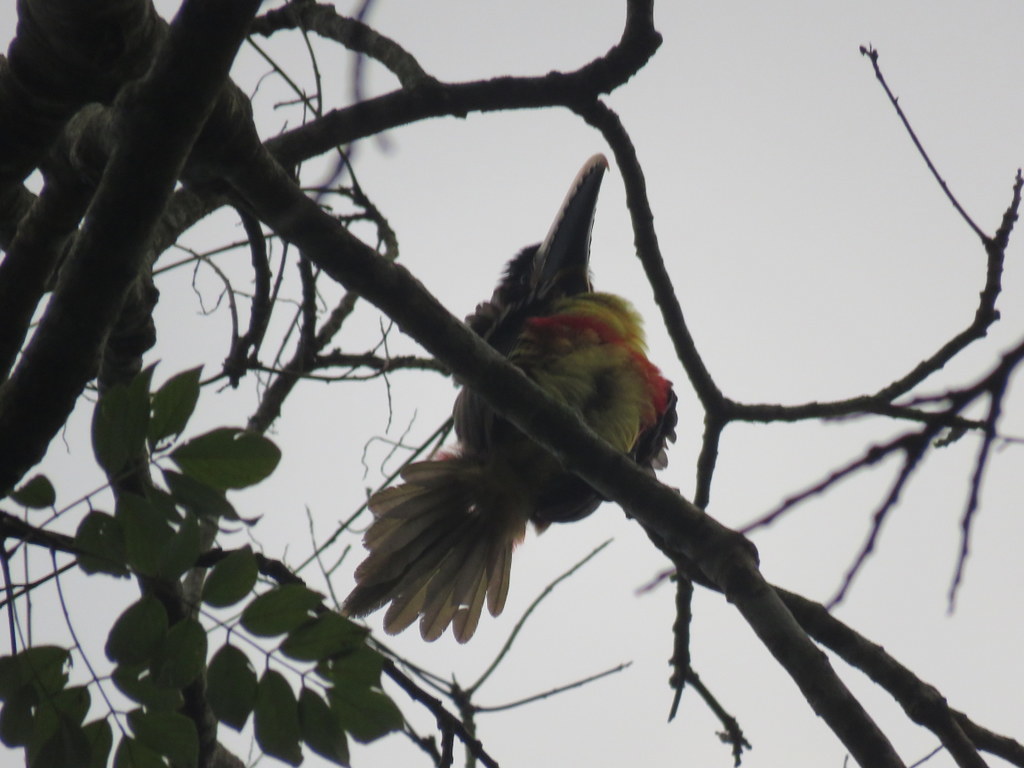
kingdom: Animalia
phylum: Chordata
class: Aves
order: Piciformes
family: Ramphastidae
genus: Pteroglossus
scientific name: Pteroglossus castanotis
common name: Chestnut-eared aracari
